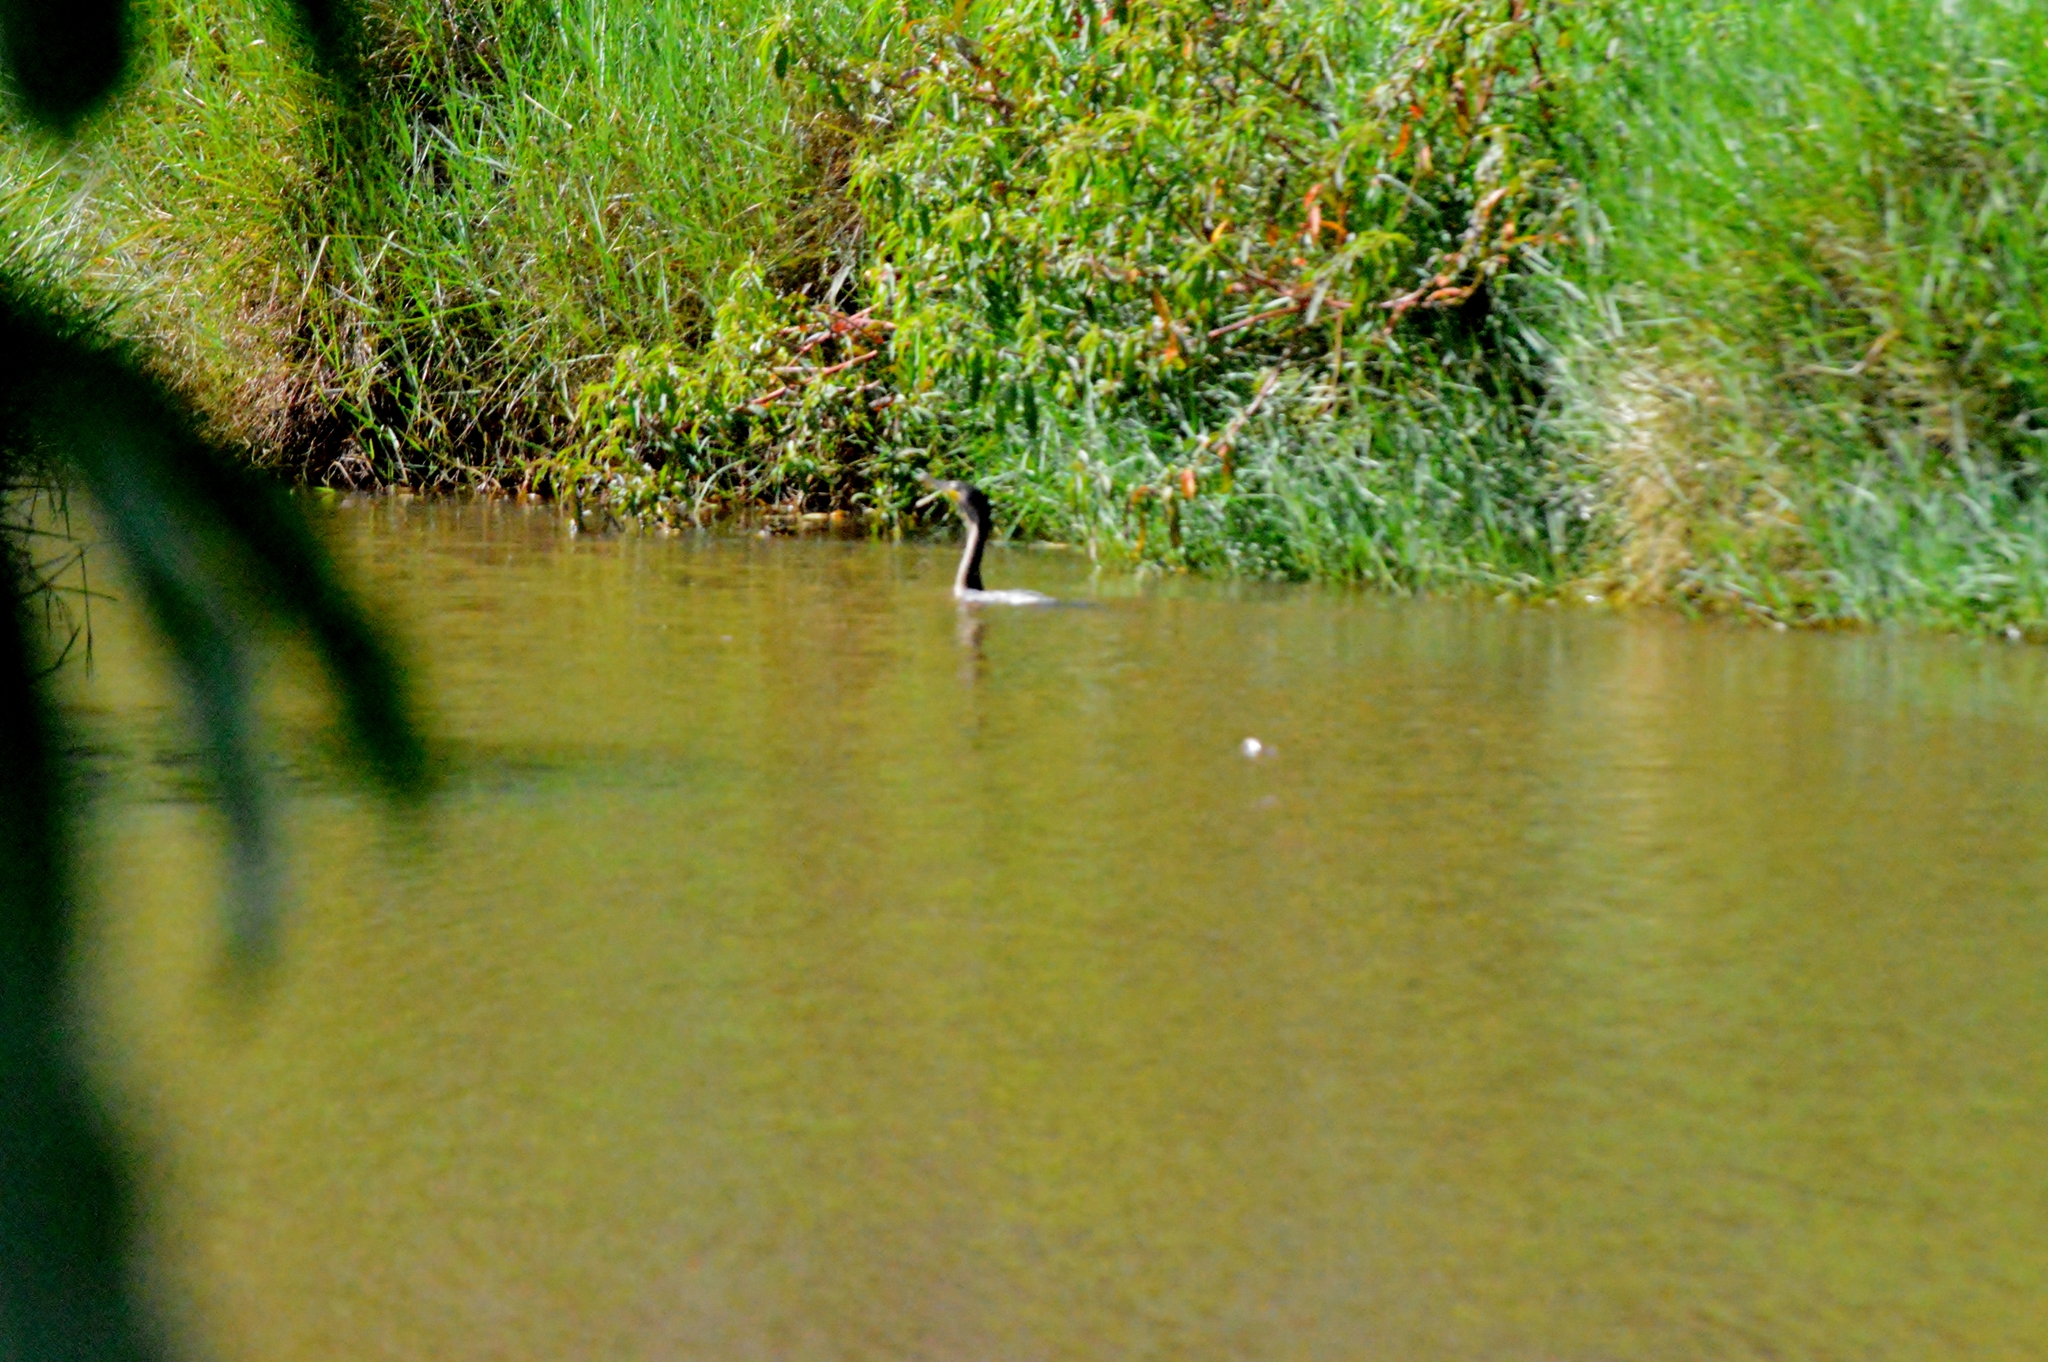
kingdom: Animalia
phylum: Chordata
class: Aves
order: Suliformes
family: Phalacrocoracidae
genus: Phalacrocorax
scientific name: Phalacrocorax brasilianus
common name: Neotropic cormorant
